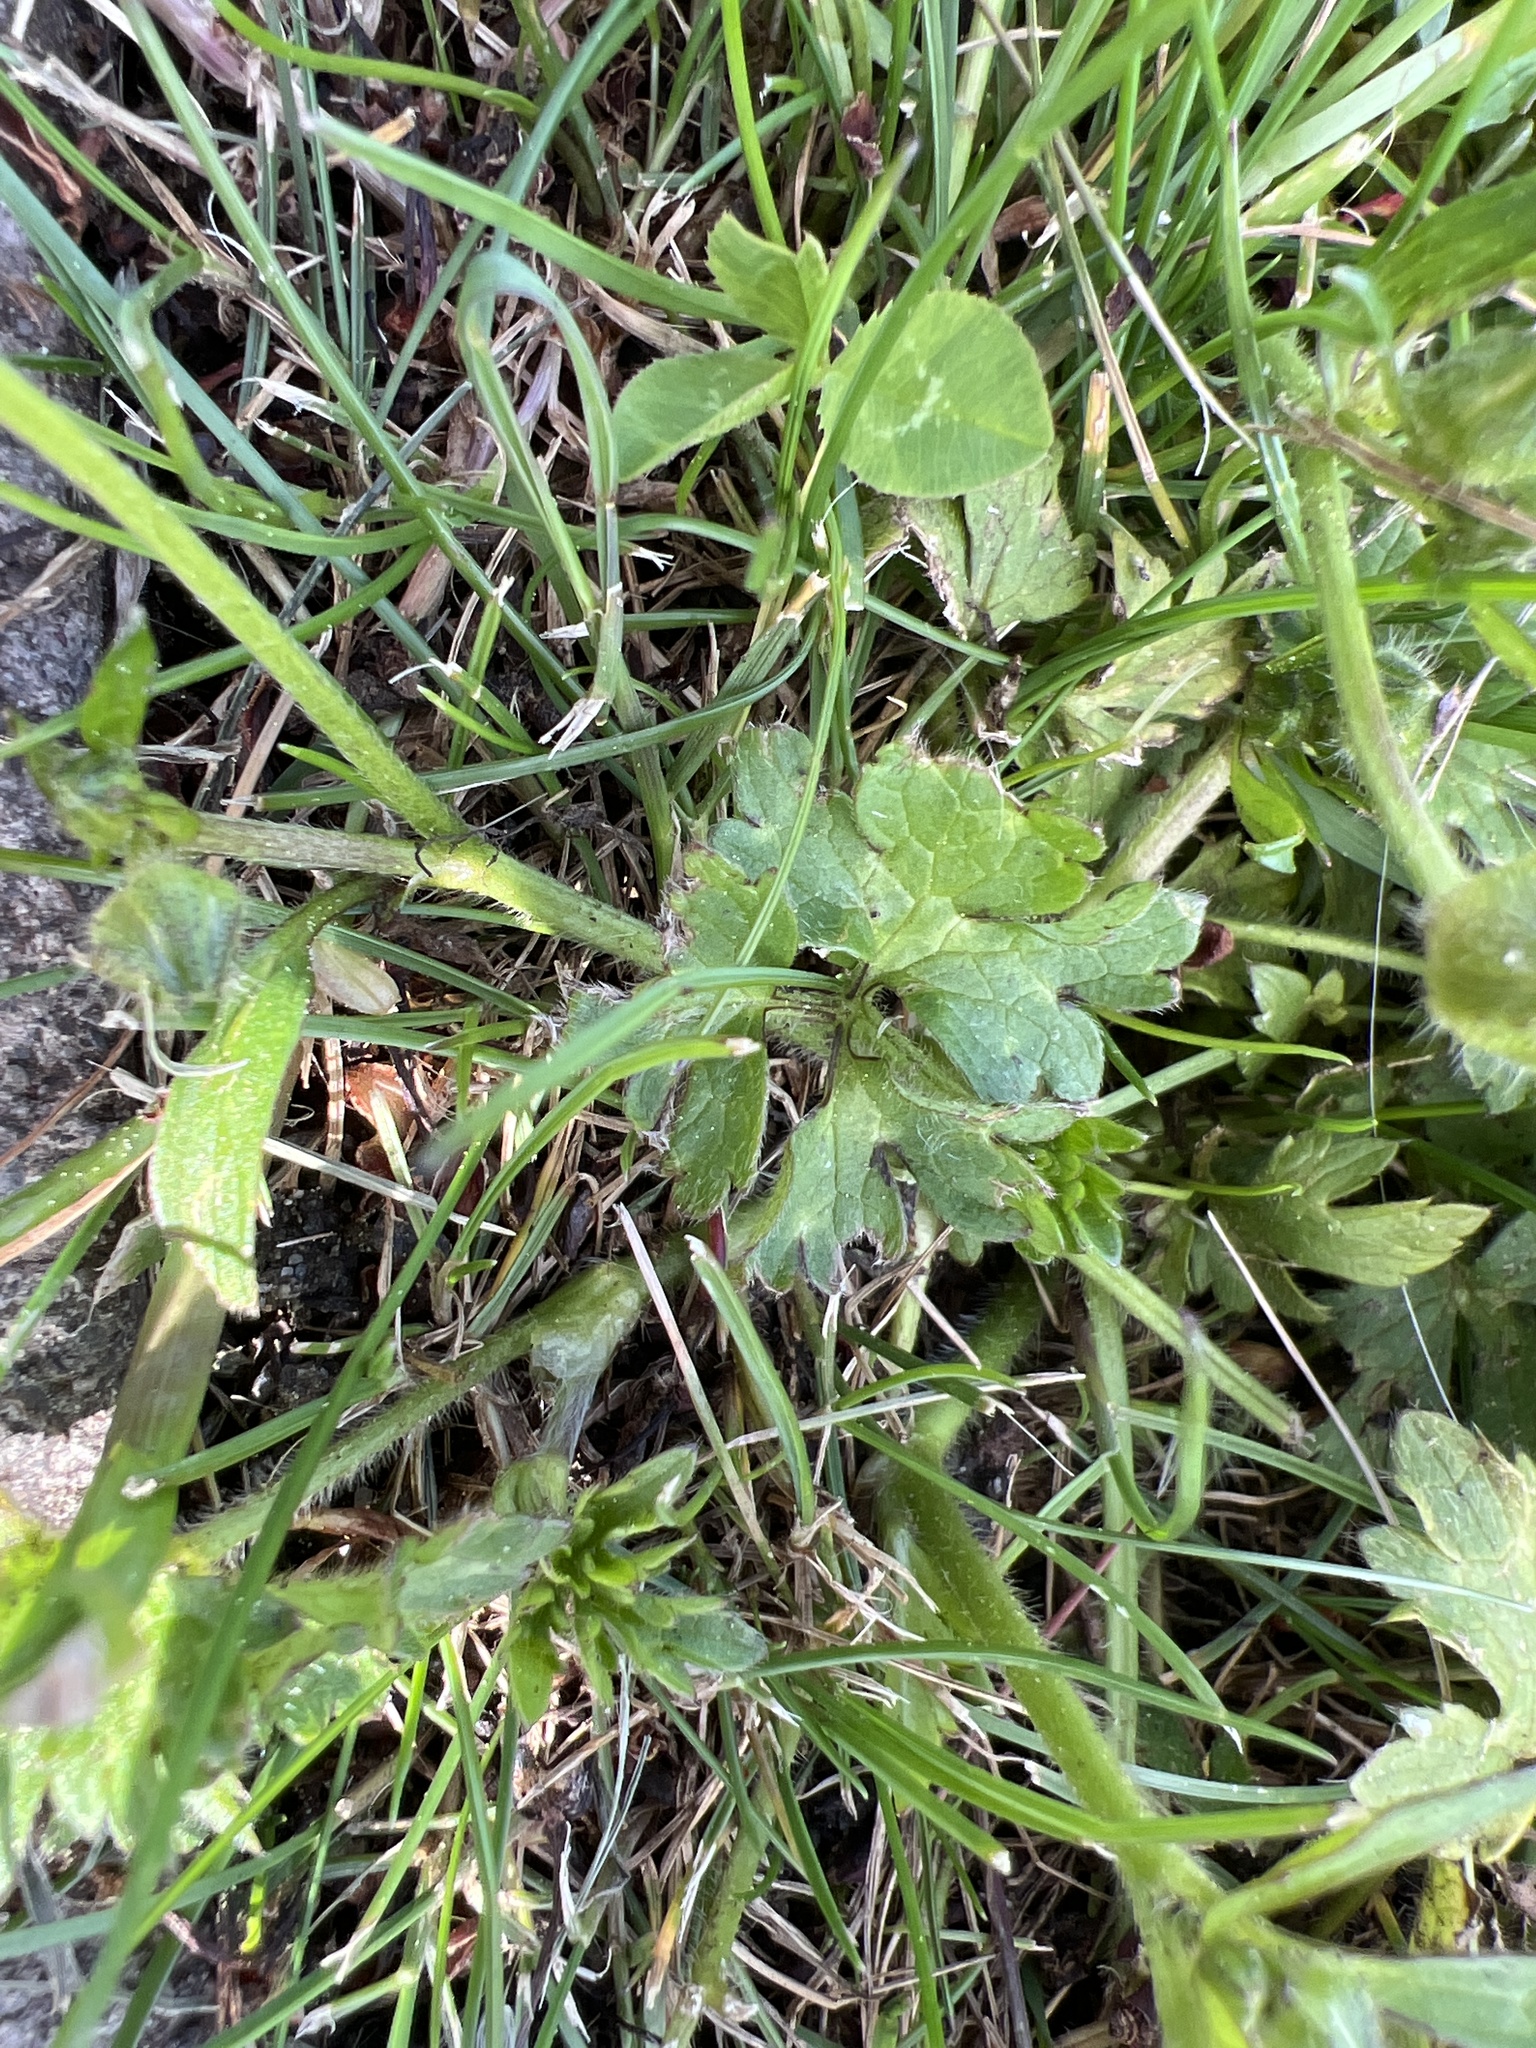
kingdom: Plantae
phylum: Tracheophyta
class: Magnoliopsida
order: Ranunculales
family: Ranunculaceae
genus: Ranunculus
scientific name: Ranunculus repens
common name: Creeping buttercup
